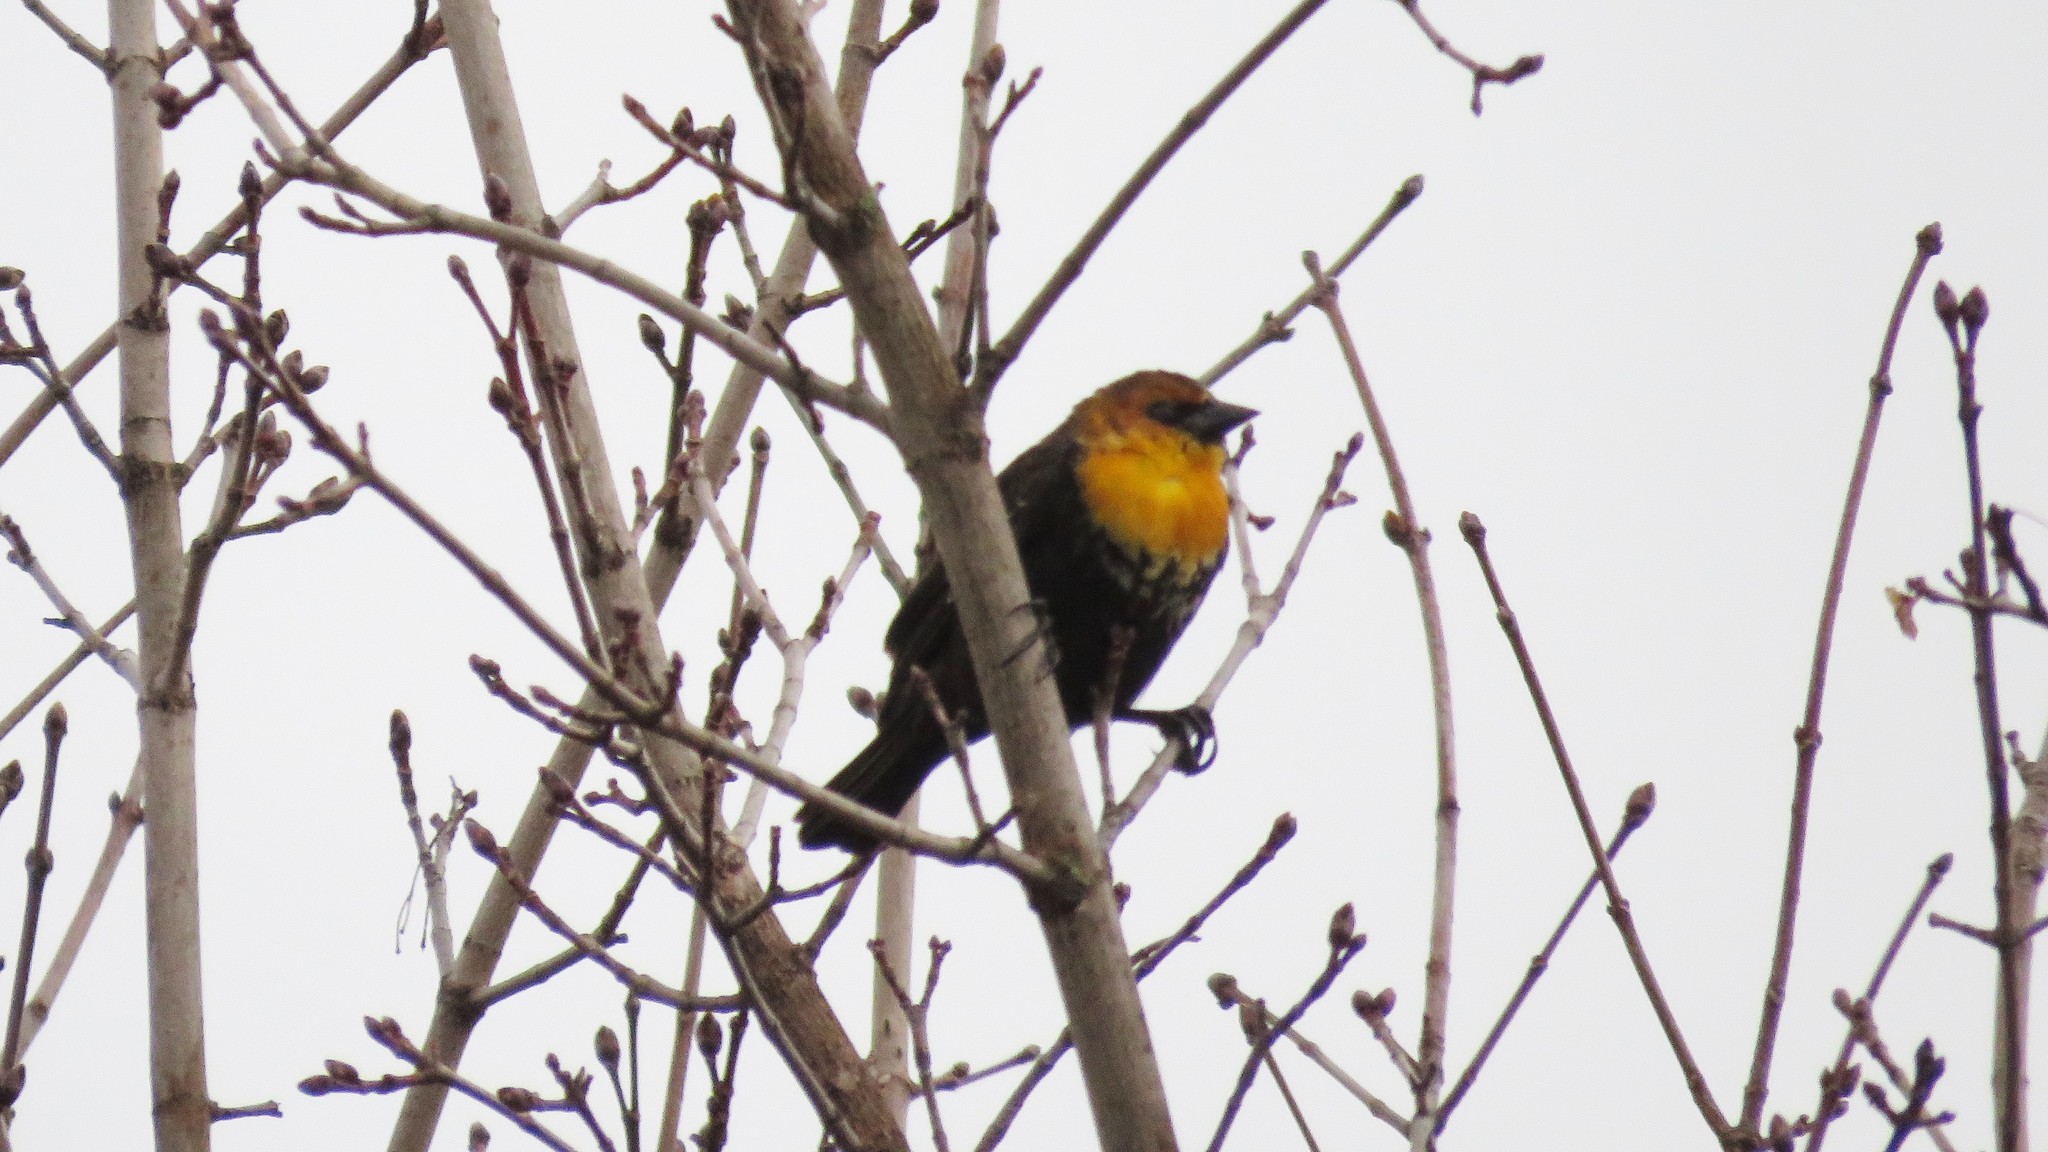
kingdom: Animalia
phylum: Chordata
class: Aves
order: Passeriformes
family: Icteridae
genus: Xanthocephalus
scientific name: Xanthocephalus xanthocephalus
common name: Yellow-headed blackbird
